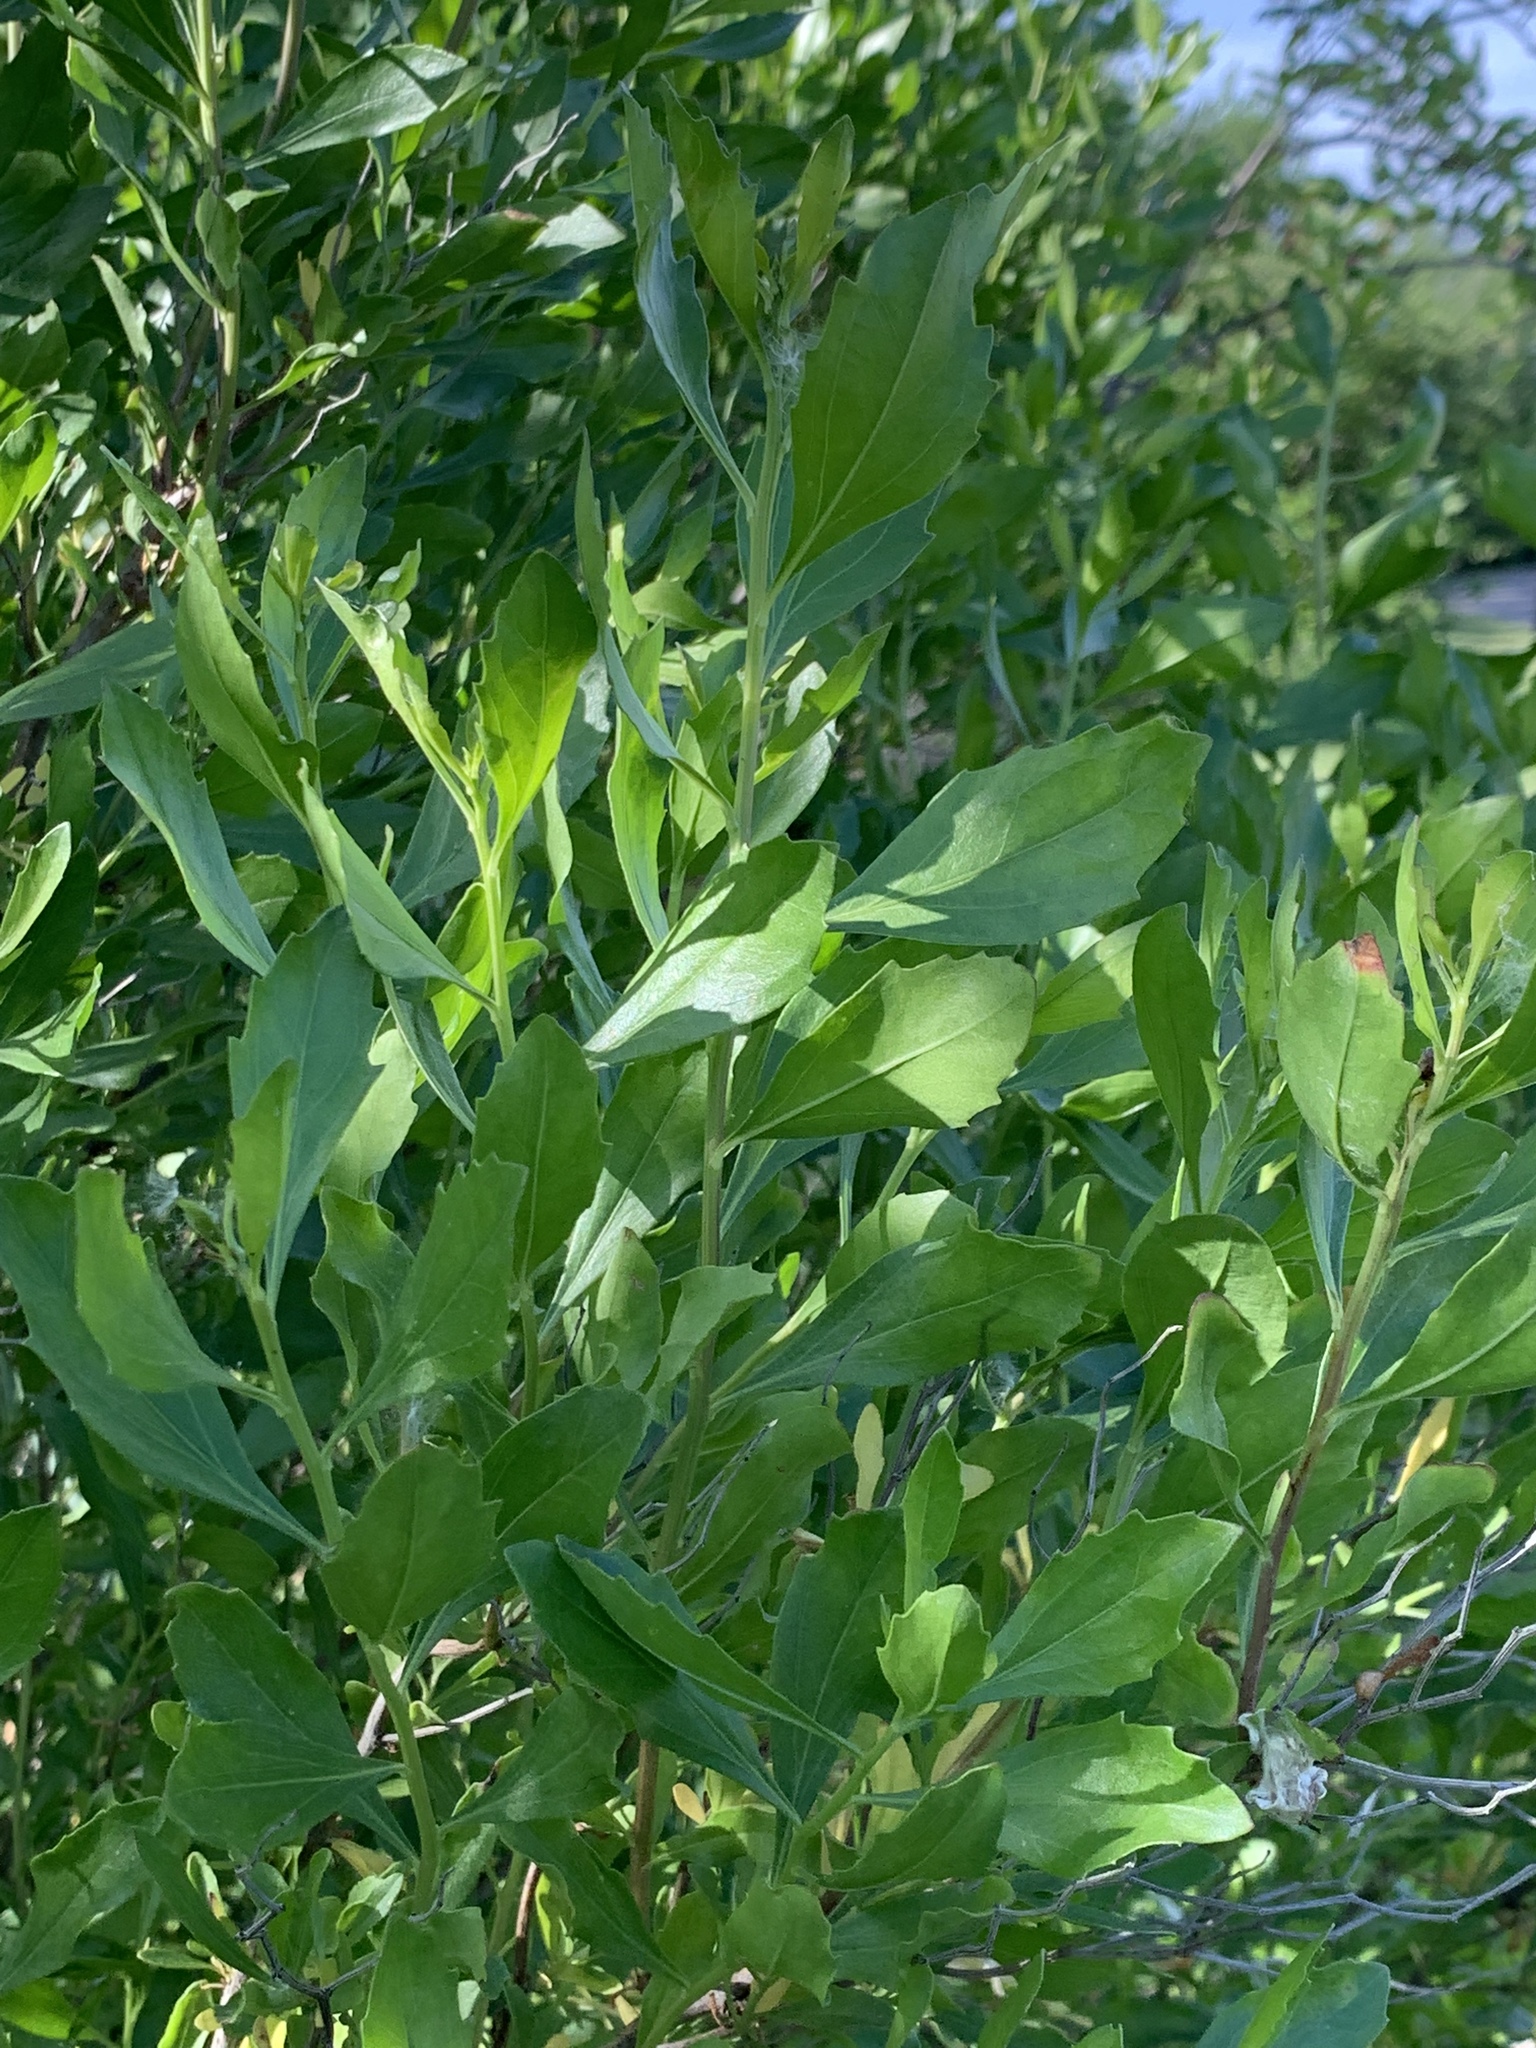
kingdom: Plantae
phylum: Tracheophyta
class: Magnoliopsida
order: Asterales
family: Asteraceae
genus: Baccharis
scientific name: Baccharis halimifolia
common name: Eastern baccharis
